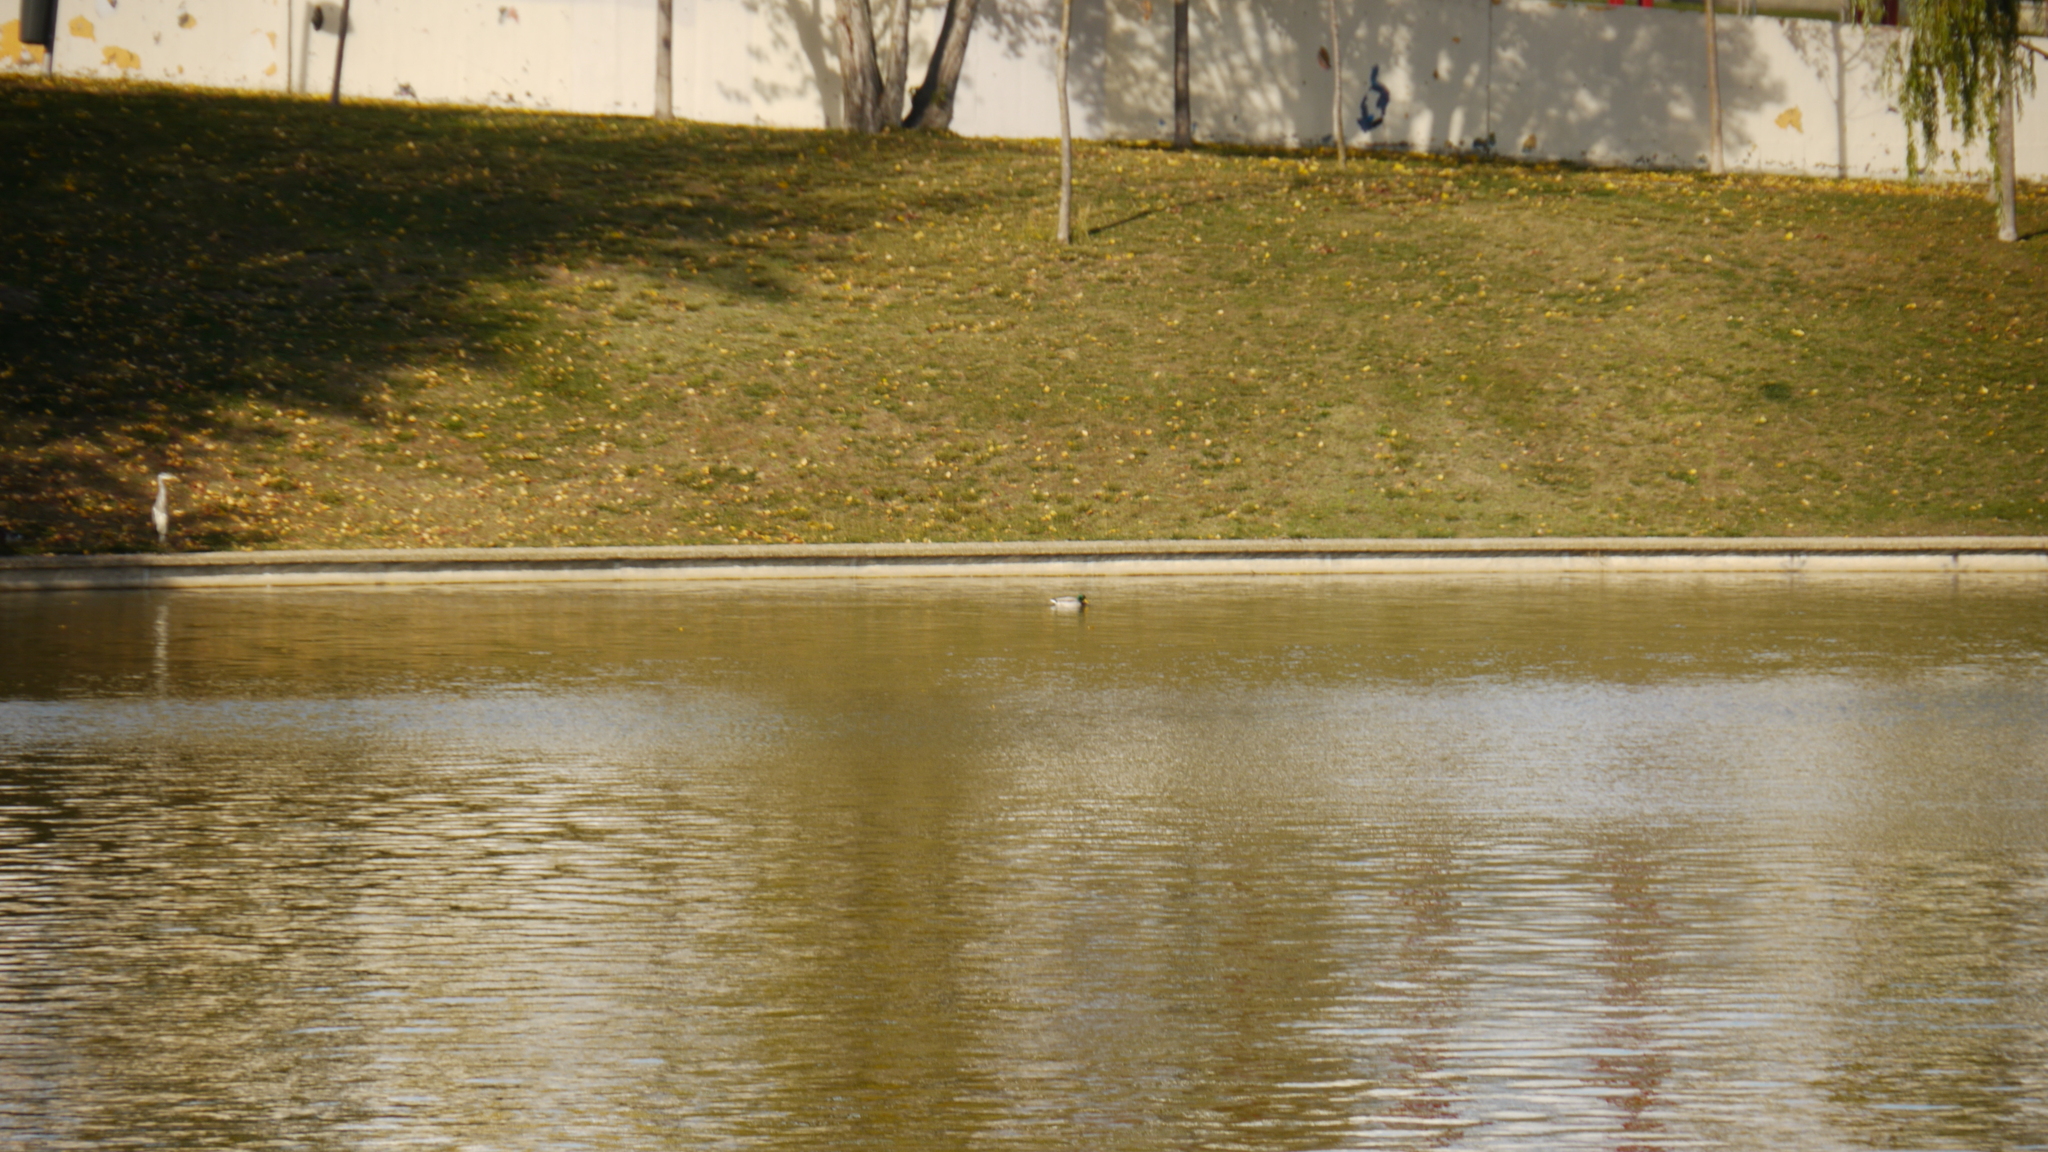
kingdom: Animalia
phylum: Chordata
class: Aves
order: Anseriformes
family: Anatidae
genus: Anas
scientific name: Anas platyrhynchos
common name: Mallard
